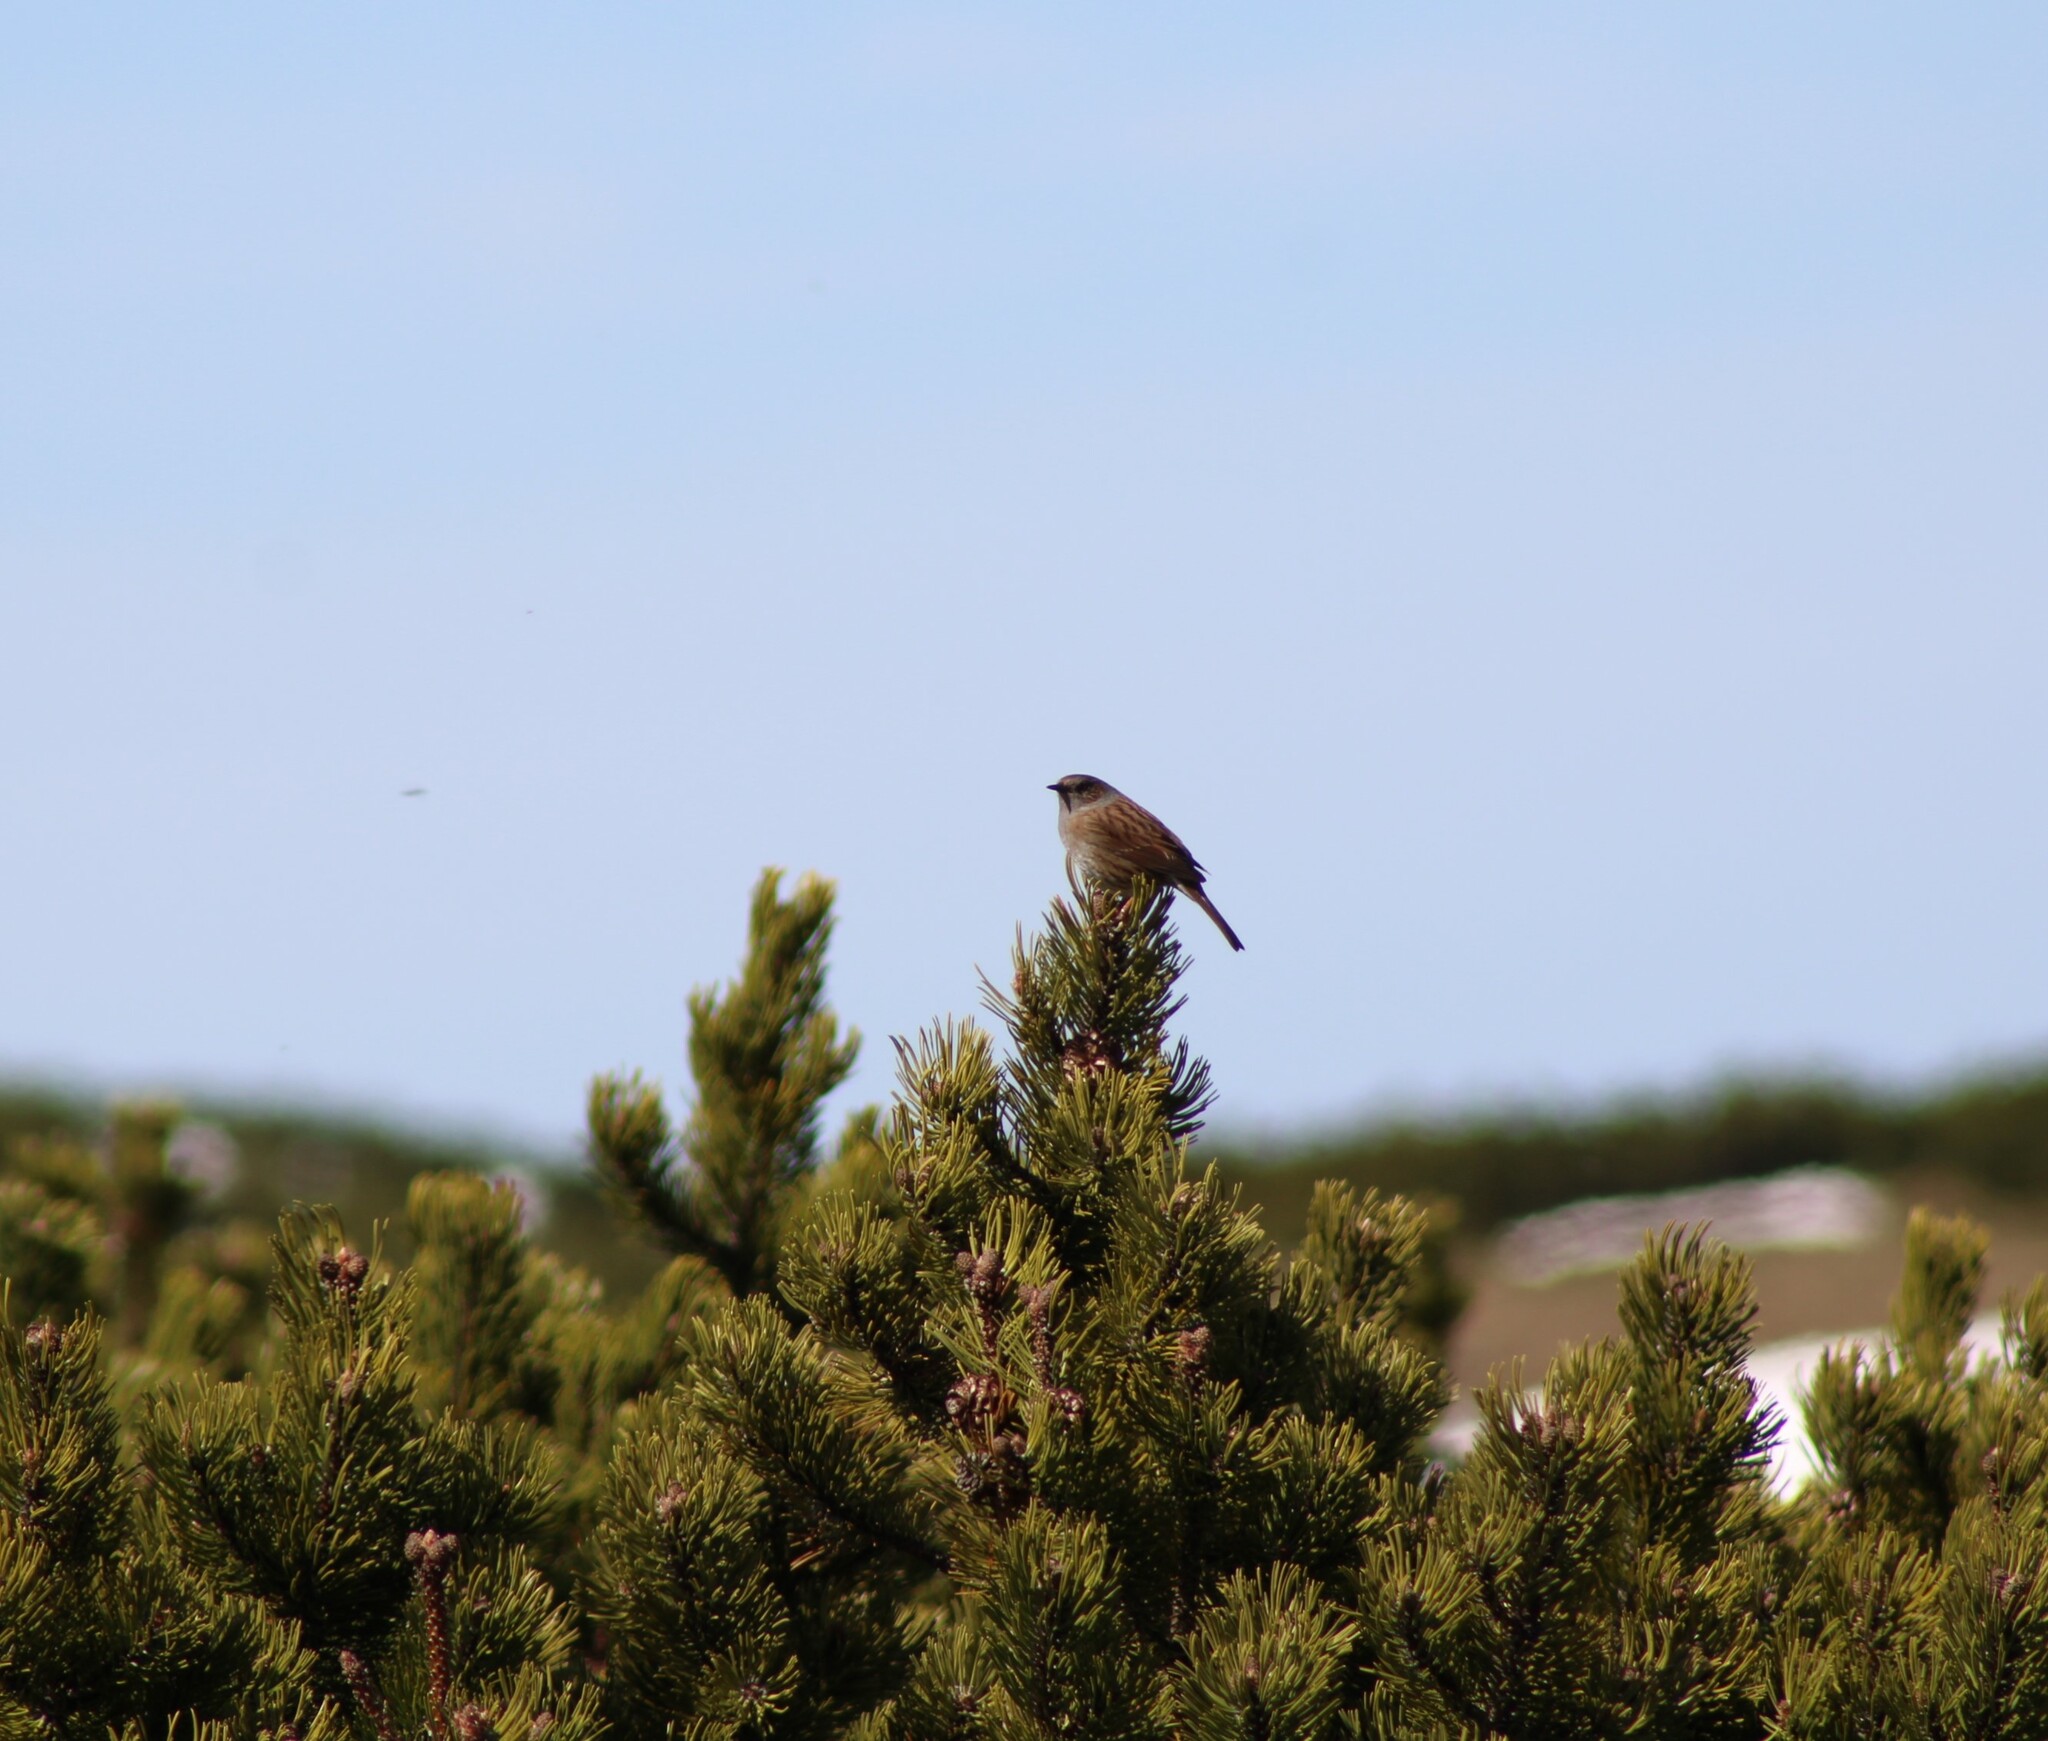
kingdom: Animalia
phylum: Chordata
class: Aves
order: Passeriformes
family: Prunellidae
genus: Prunella
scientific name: Prunella modularis
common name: Dunnock
